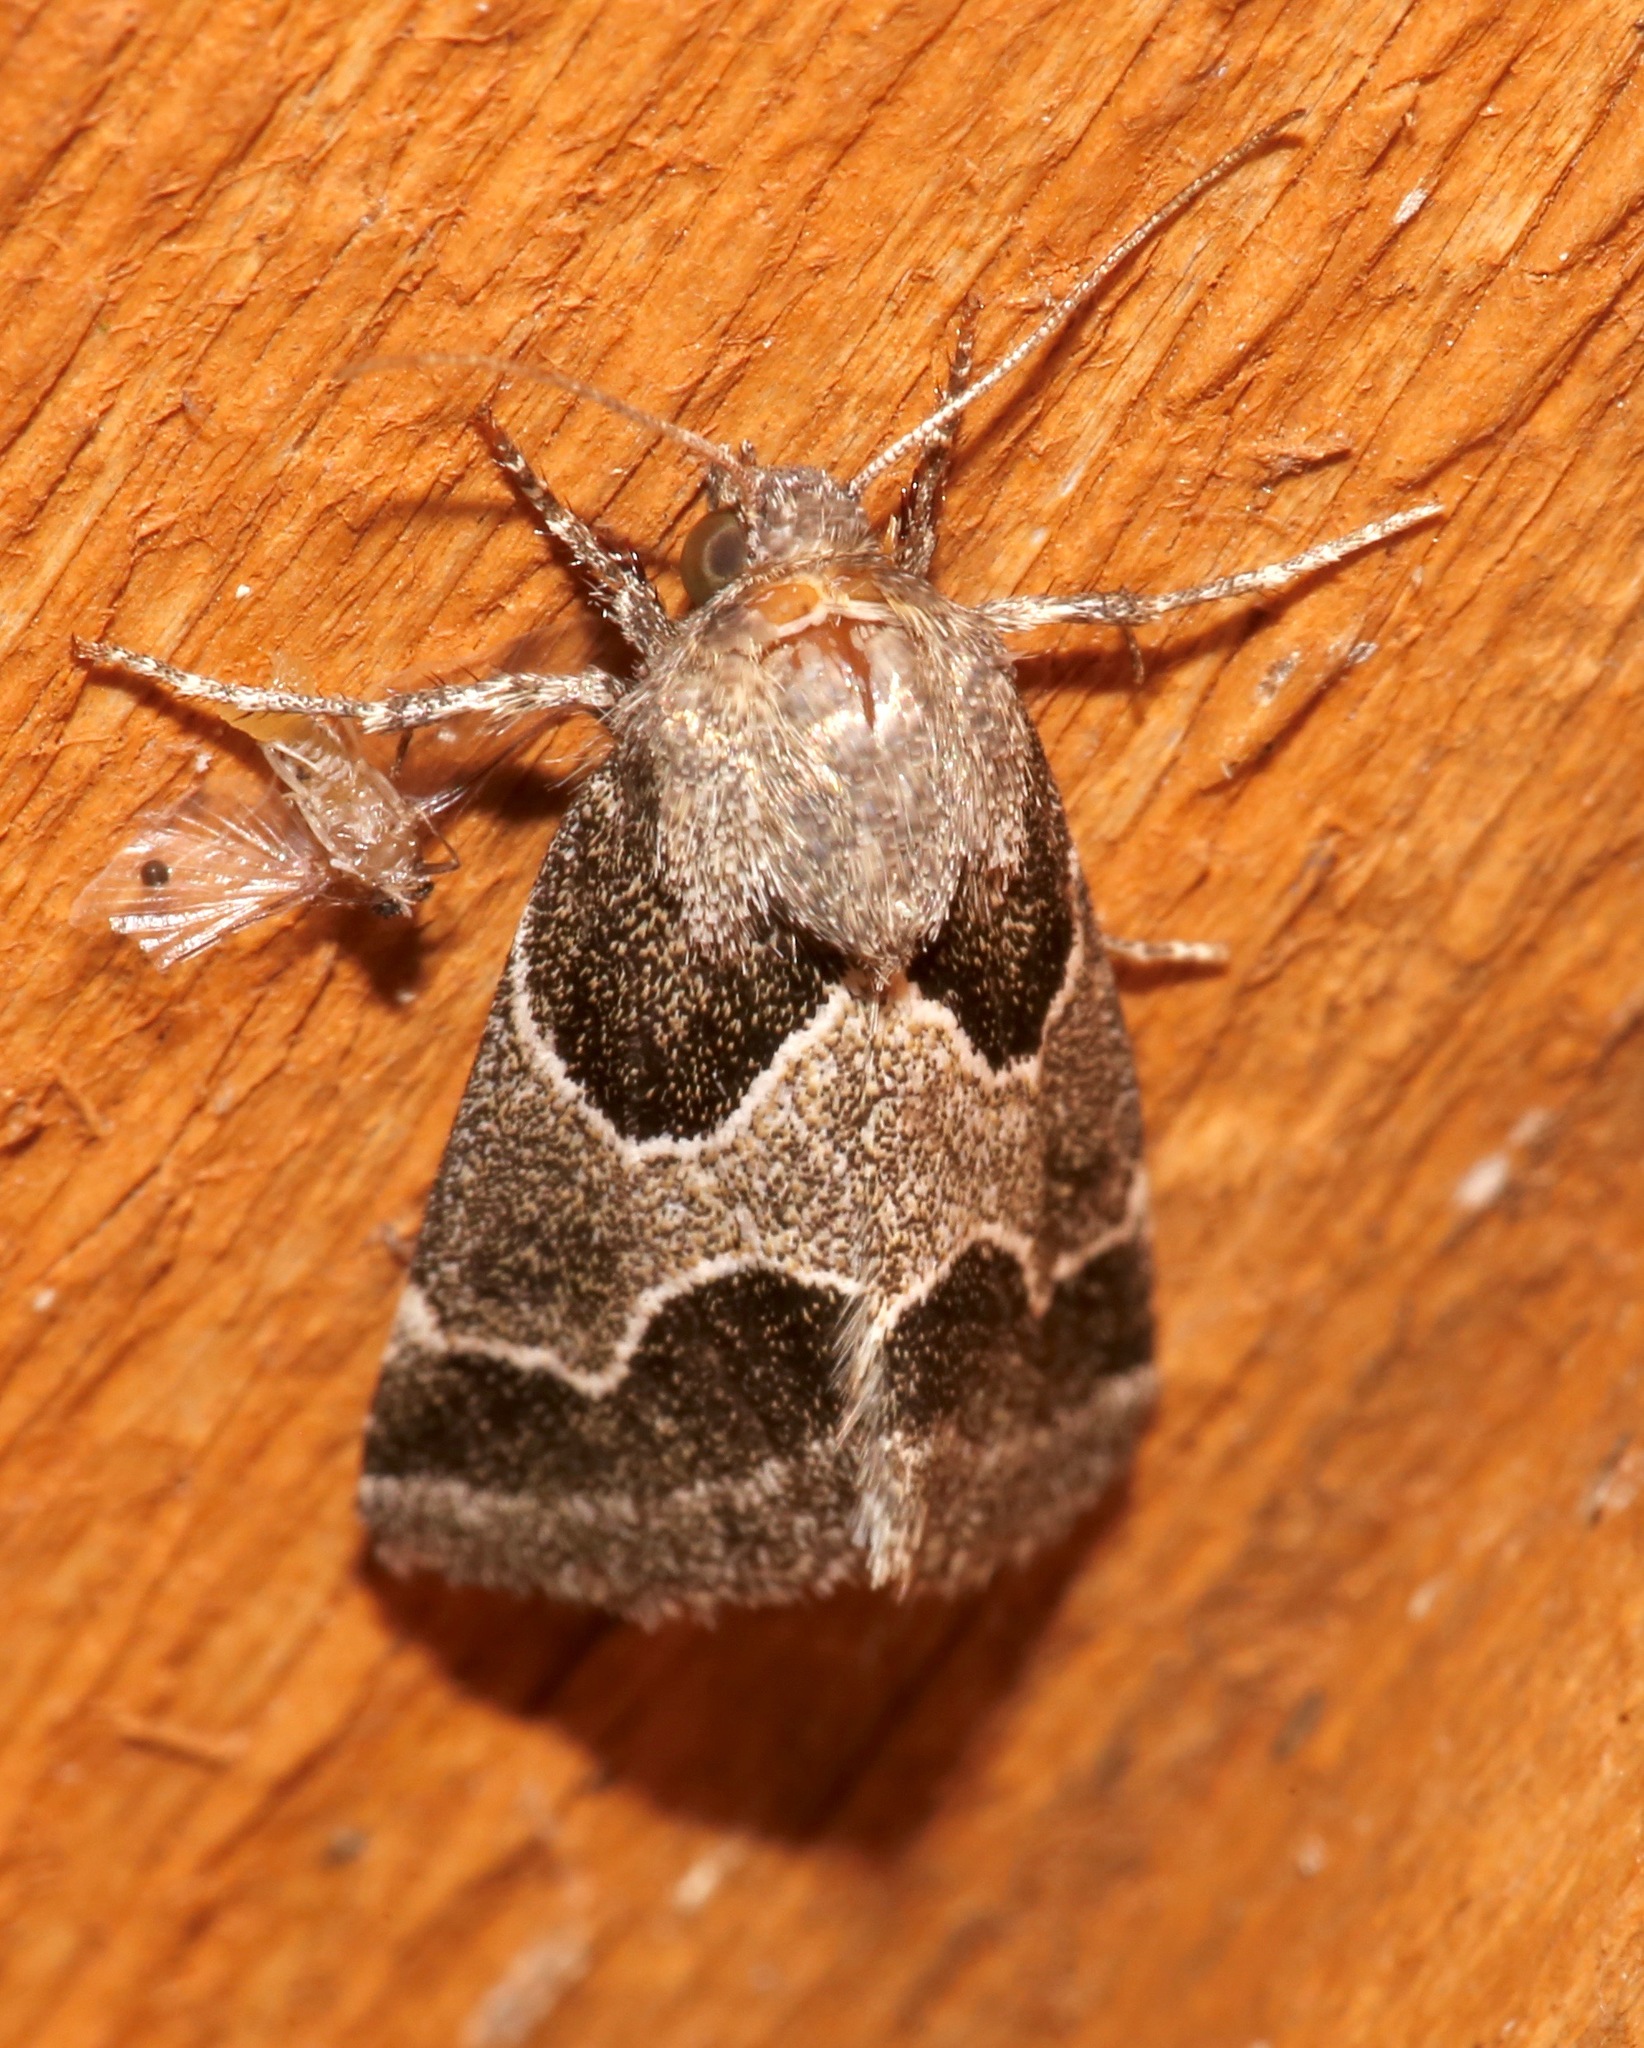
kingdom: Animalia
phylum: Arthropoda
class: Insecta
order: Lepidoptera
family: Noctuidae
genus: Schinia
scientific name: Schinia rivulosa
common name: Scarce meal-moth
